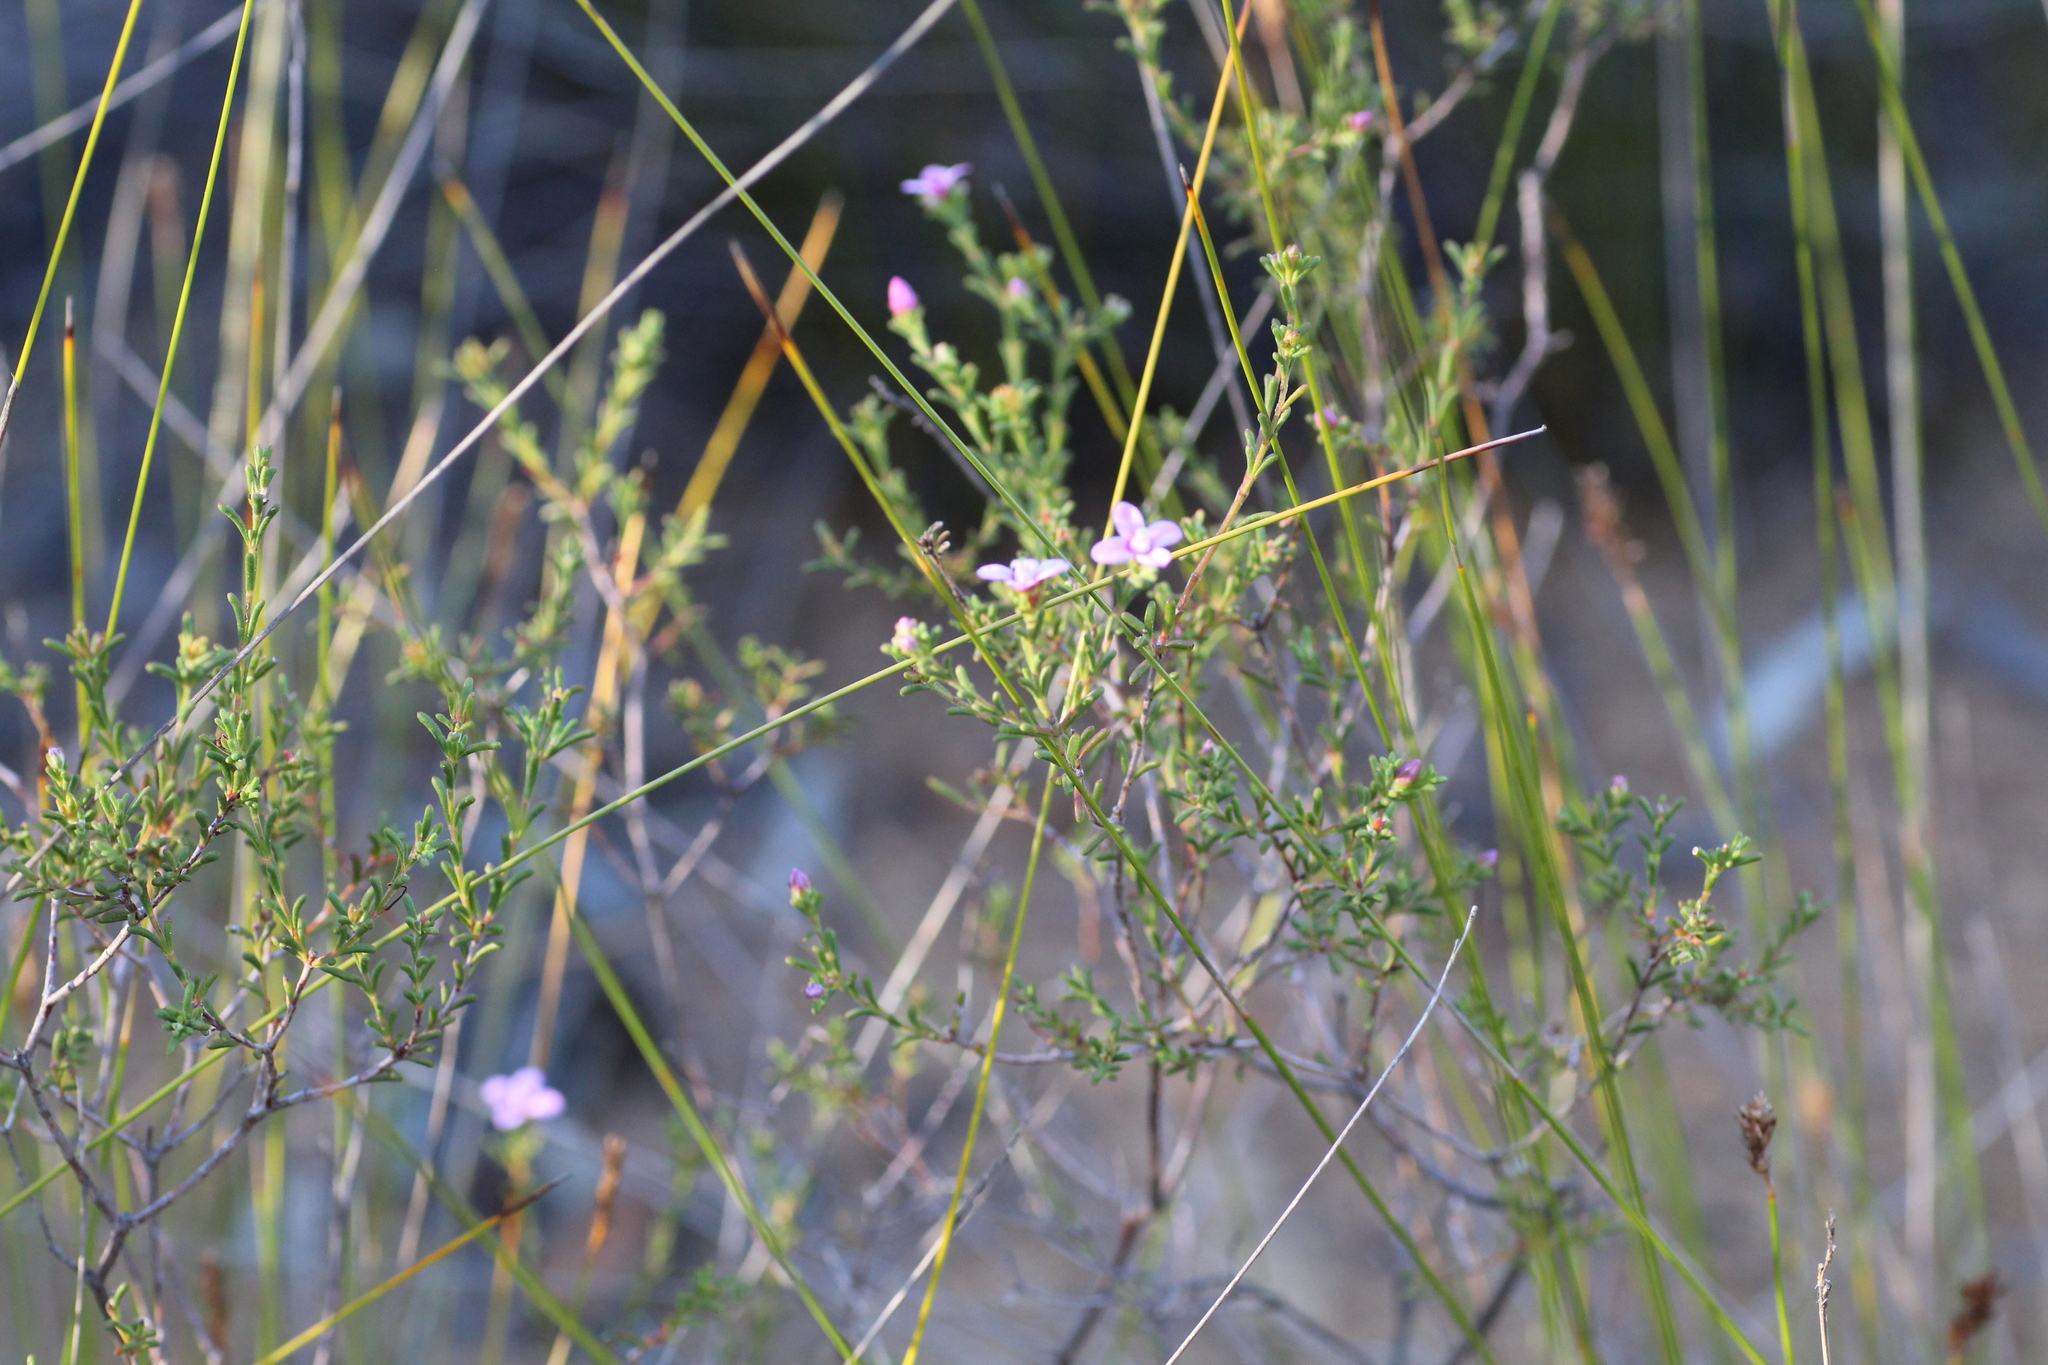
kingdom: Plantae
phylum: Tracheophyta
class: Magnoliopsida
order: Sapindales
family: Rutaceae
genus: Boronia
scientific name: Boronia capitata
